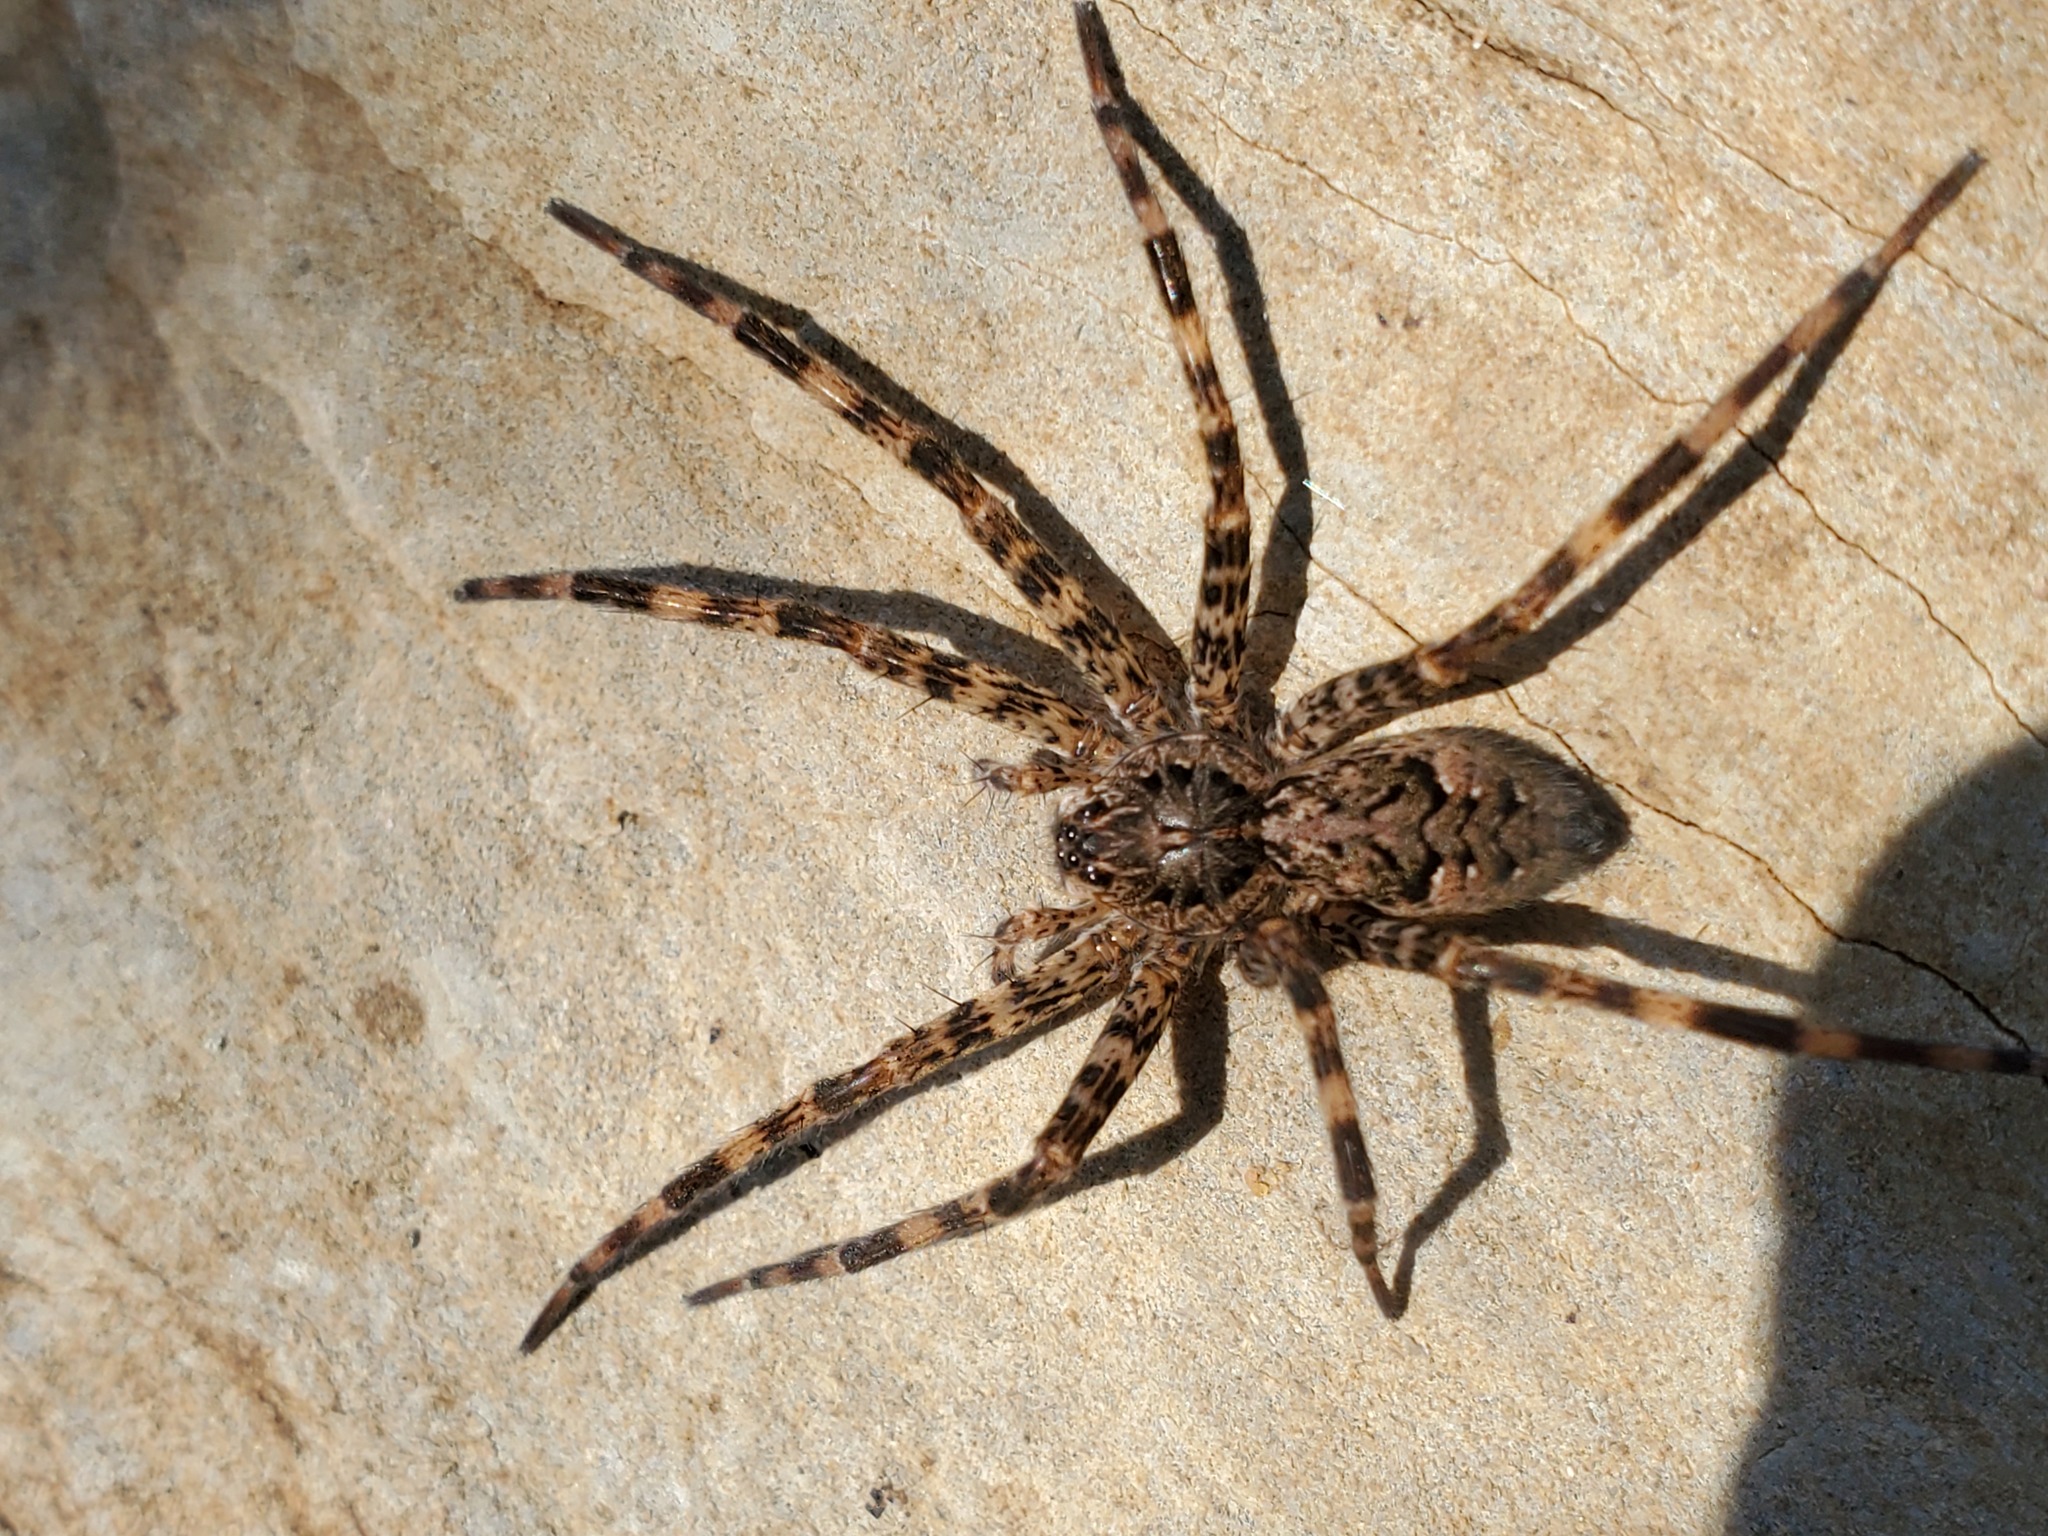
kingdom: Animalia
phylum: Arthropoda
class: Arachnida
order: Araneae
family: Pisauridae
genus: Dolomedes
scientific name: Dolomedes tenebrosus
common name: Dark fishing spider
